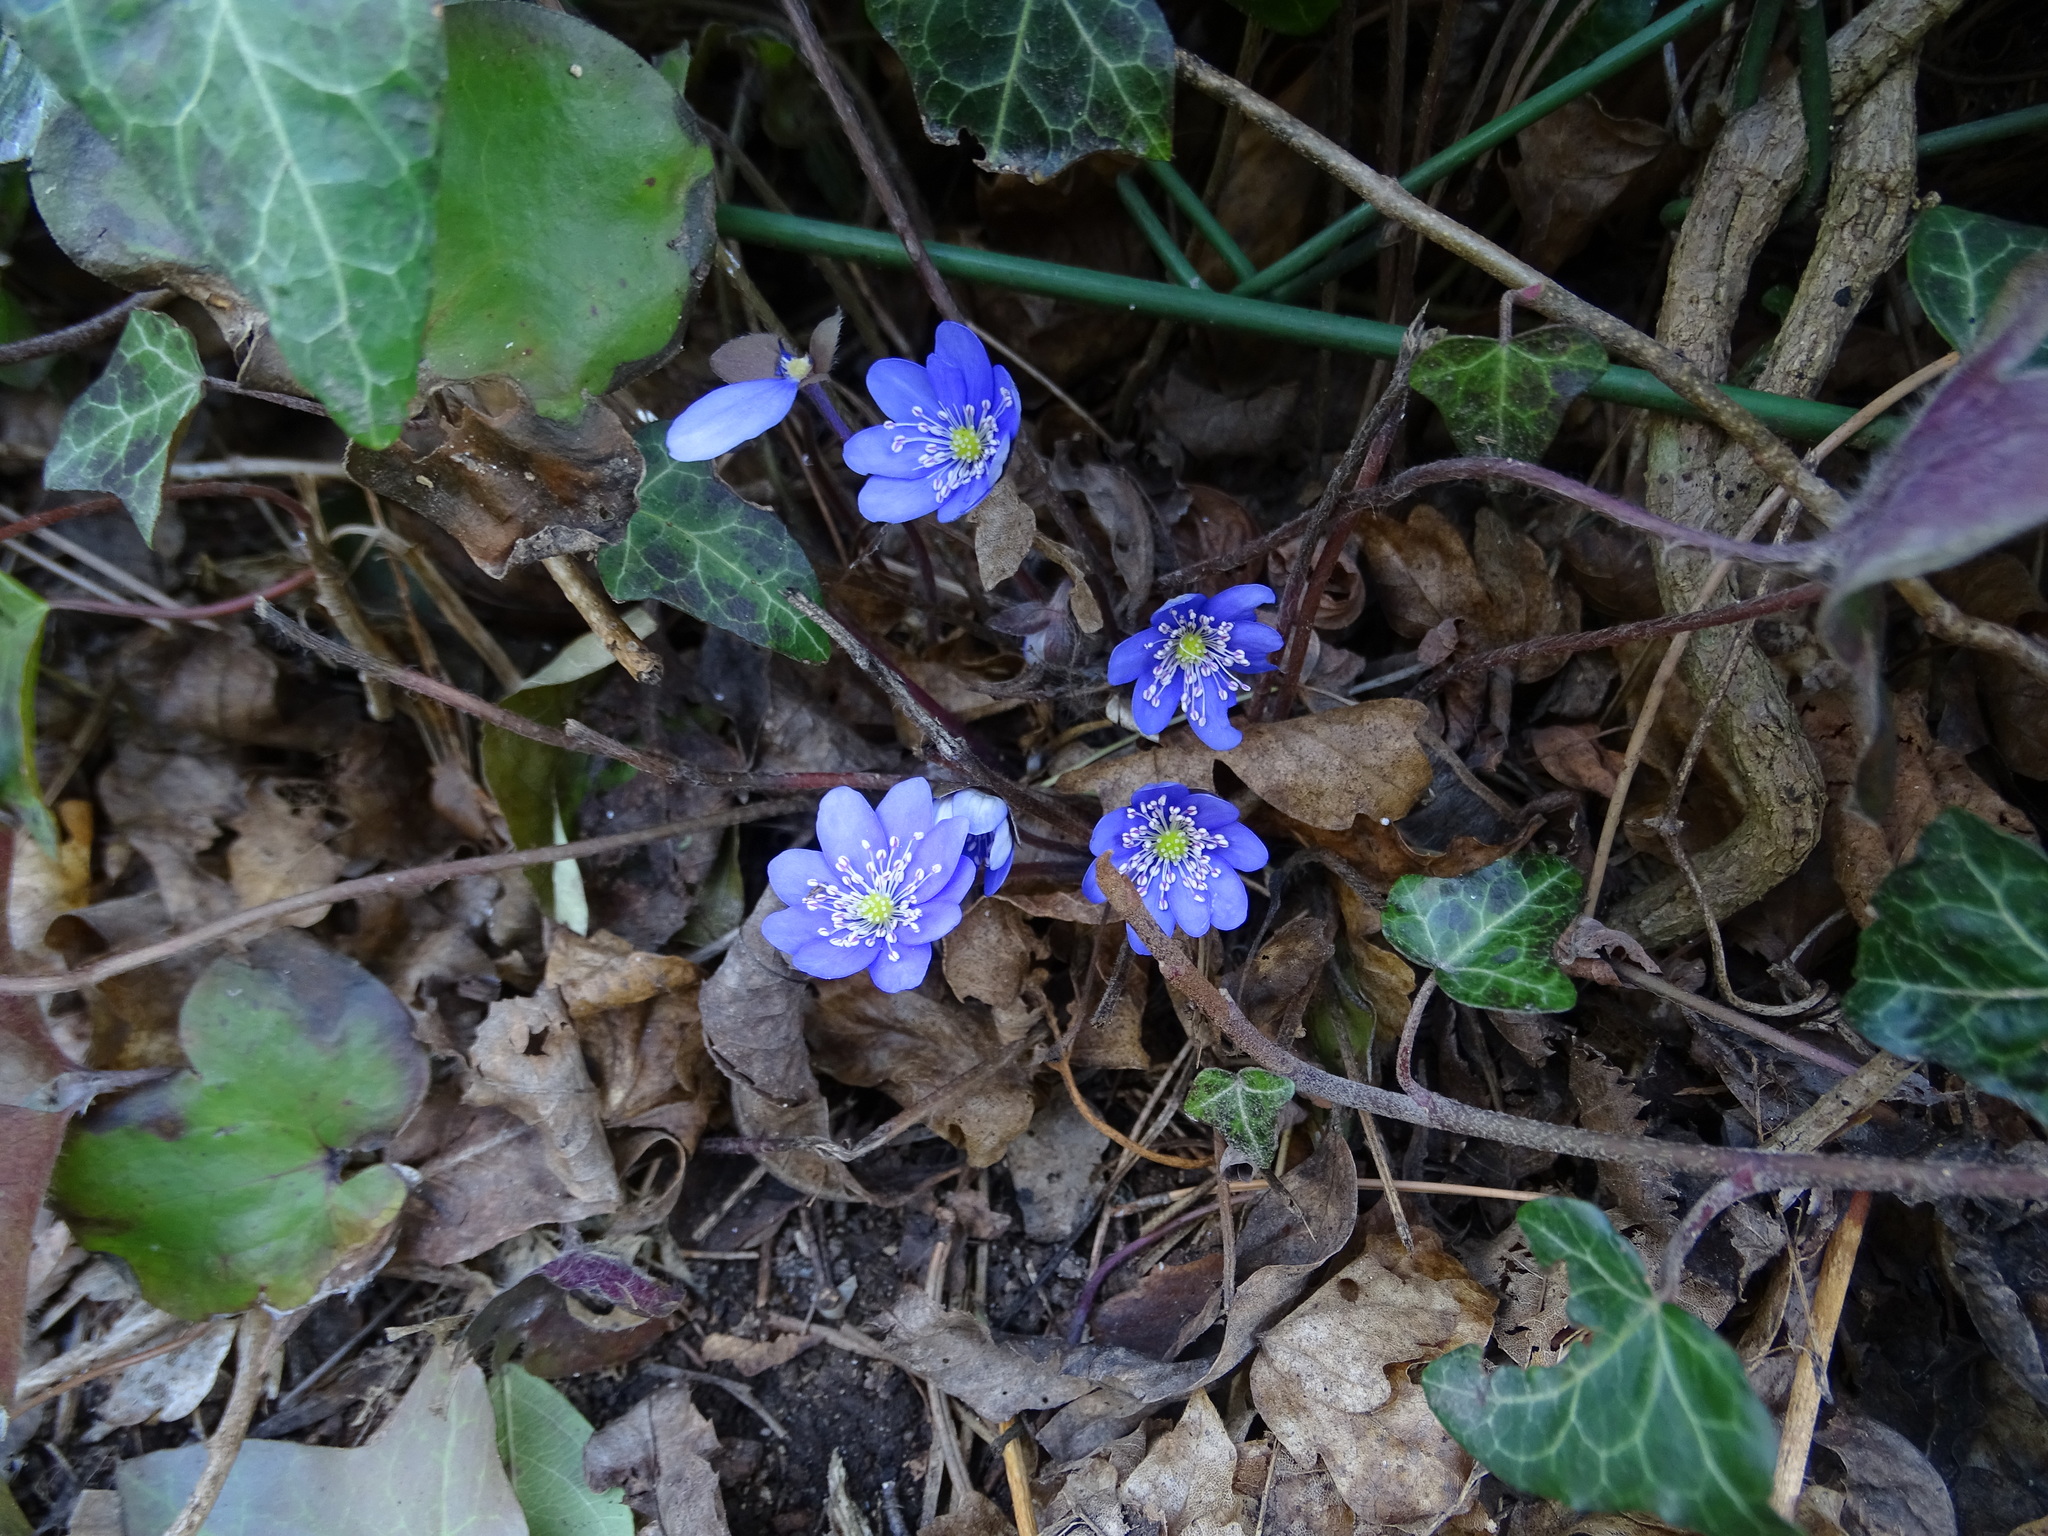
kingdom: Plantae
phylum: Tracheophyta
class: Magnoliopsida
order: Ranunculales
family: Ranunculaceae
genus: Hepatica
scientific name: Hepatica nobilis
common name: Liverleaf
